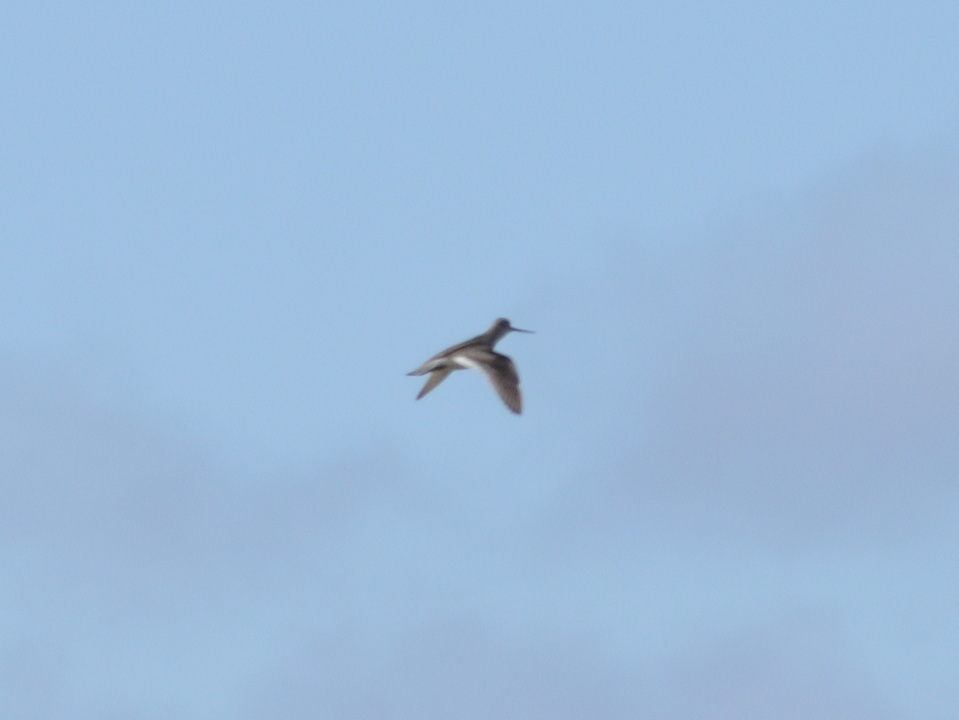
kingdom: Animalia
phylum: Chordata
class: Aves
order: Charadriiformes
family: Scolopacidae
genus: Xenus
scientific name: Xenus cinereus
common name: Terek sandpiper
